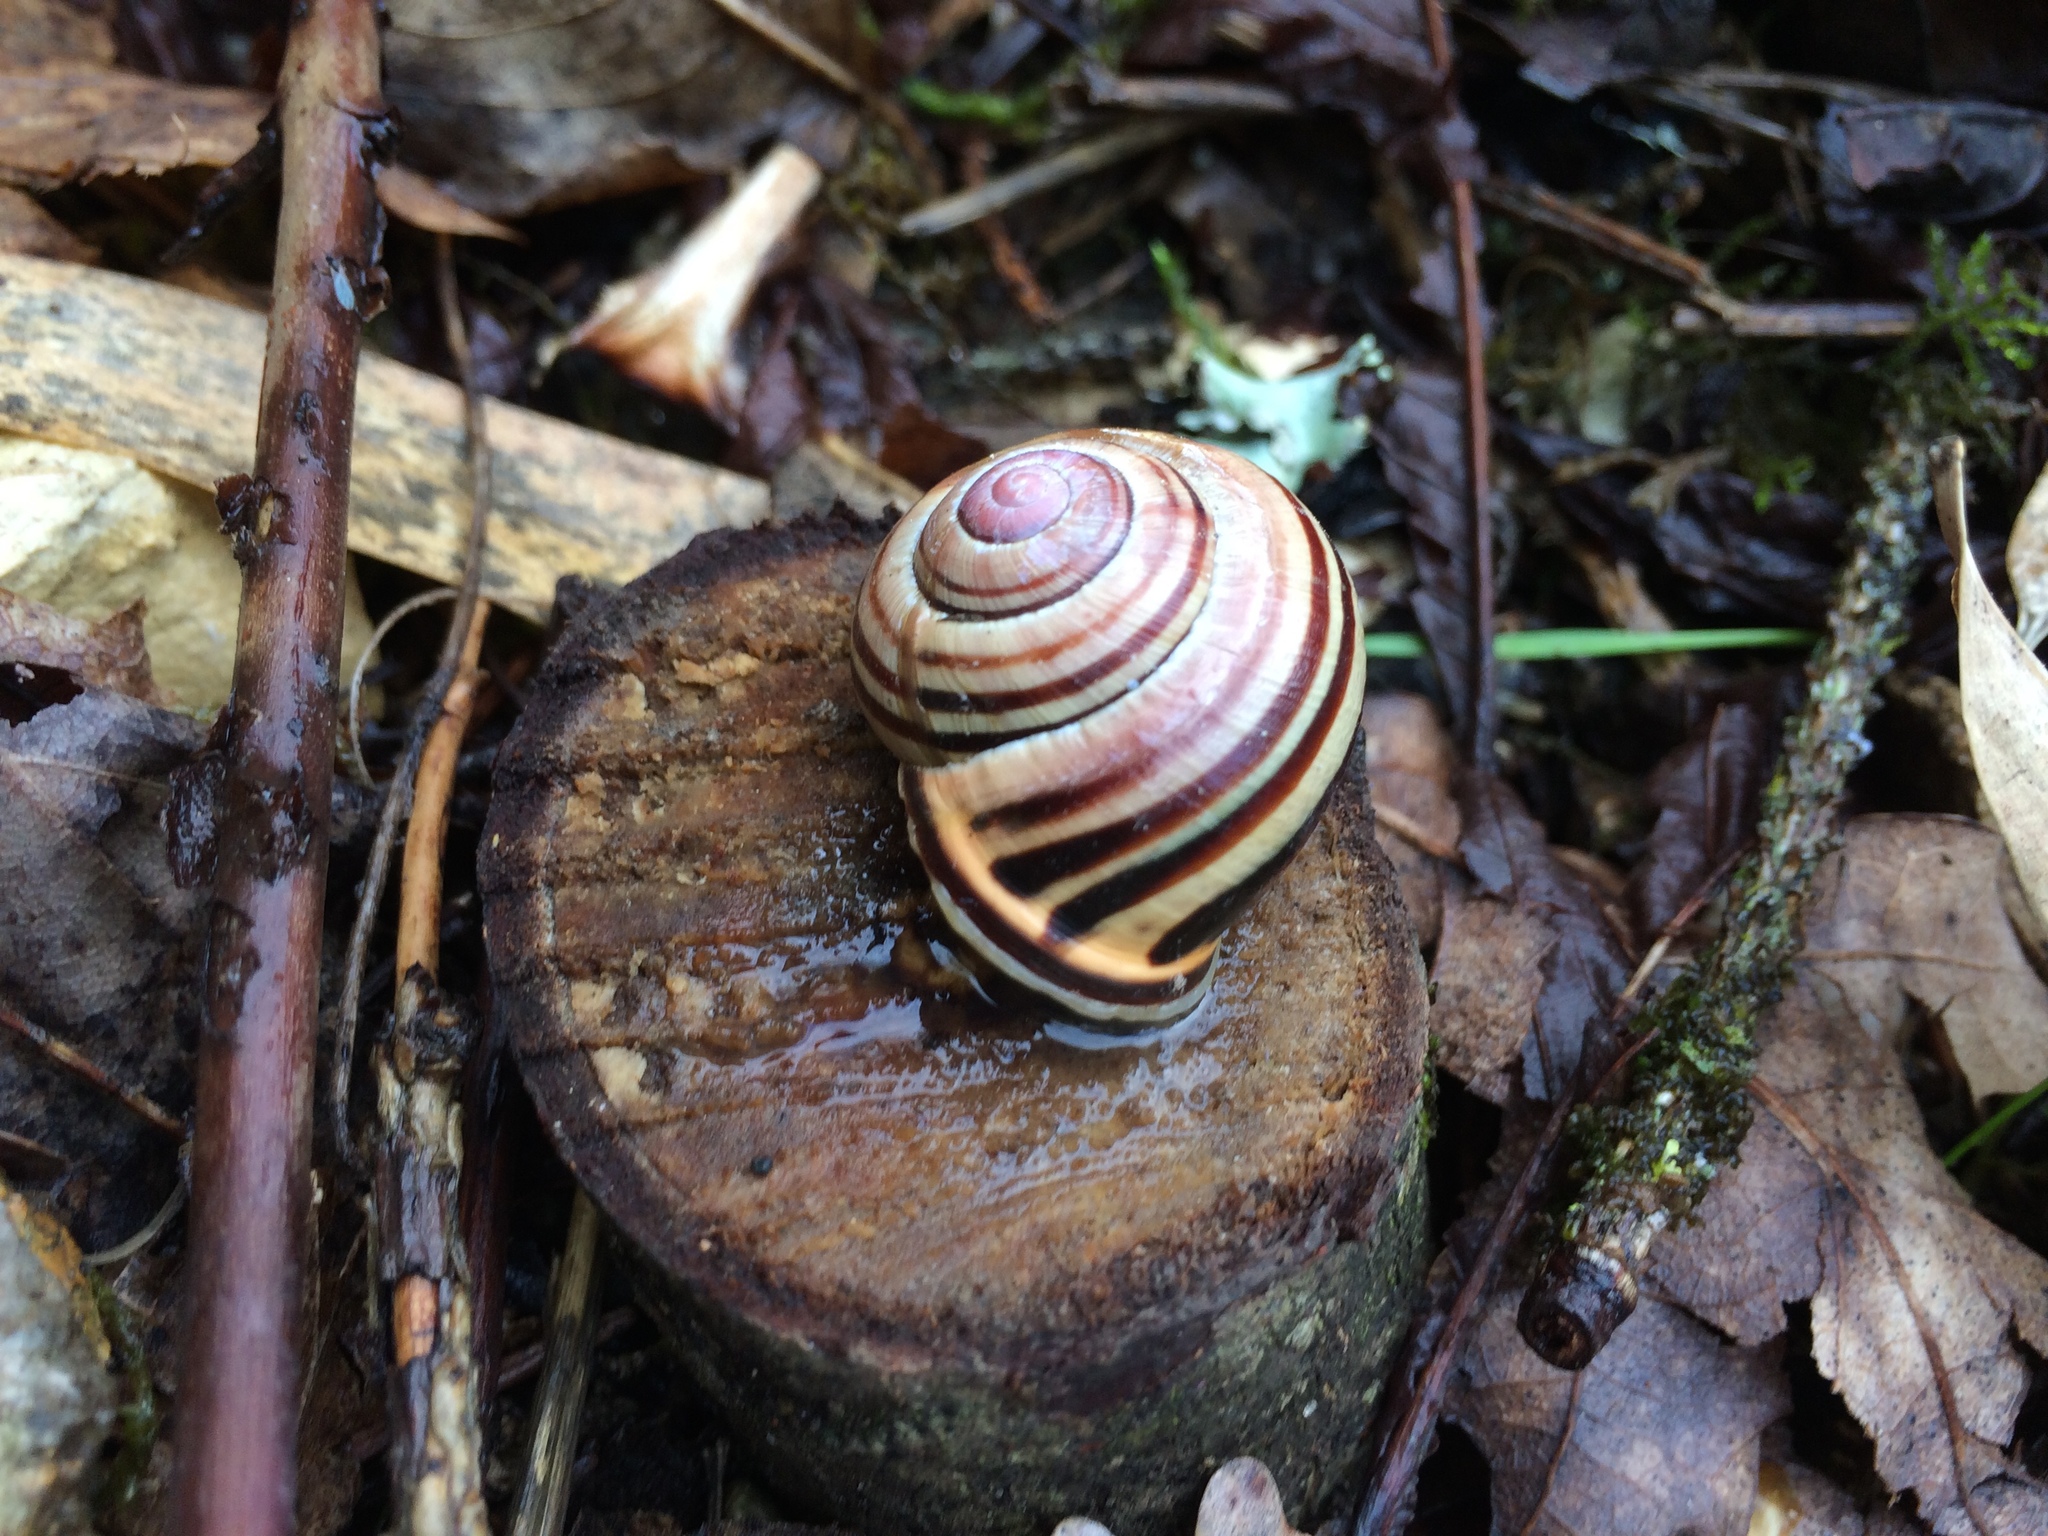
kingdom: Animalia
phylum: Mollusca
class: Gastropoda
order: Stylommatophora
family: Helicidae
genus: Cepaea
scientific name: Cepaea nemoralis
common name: Grovesnail
